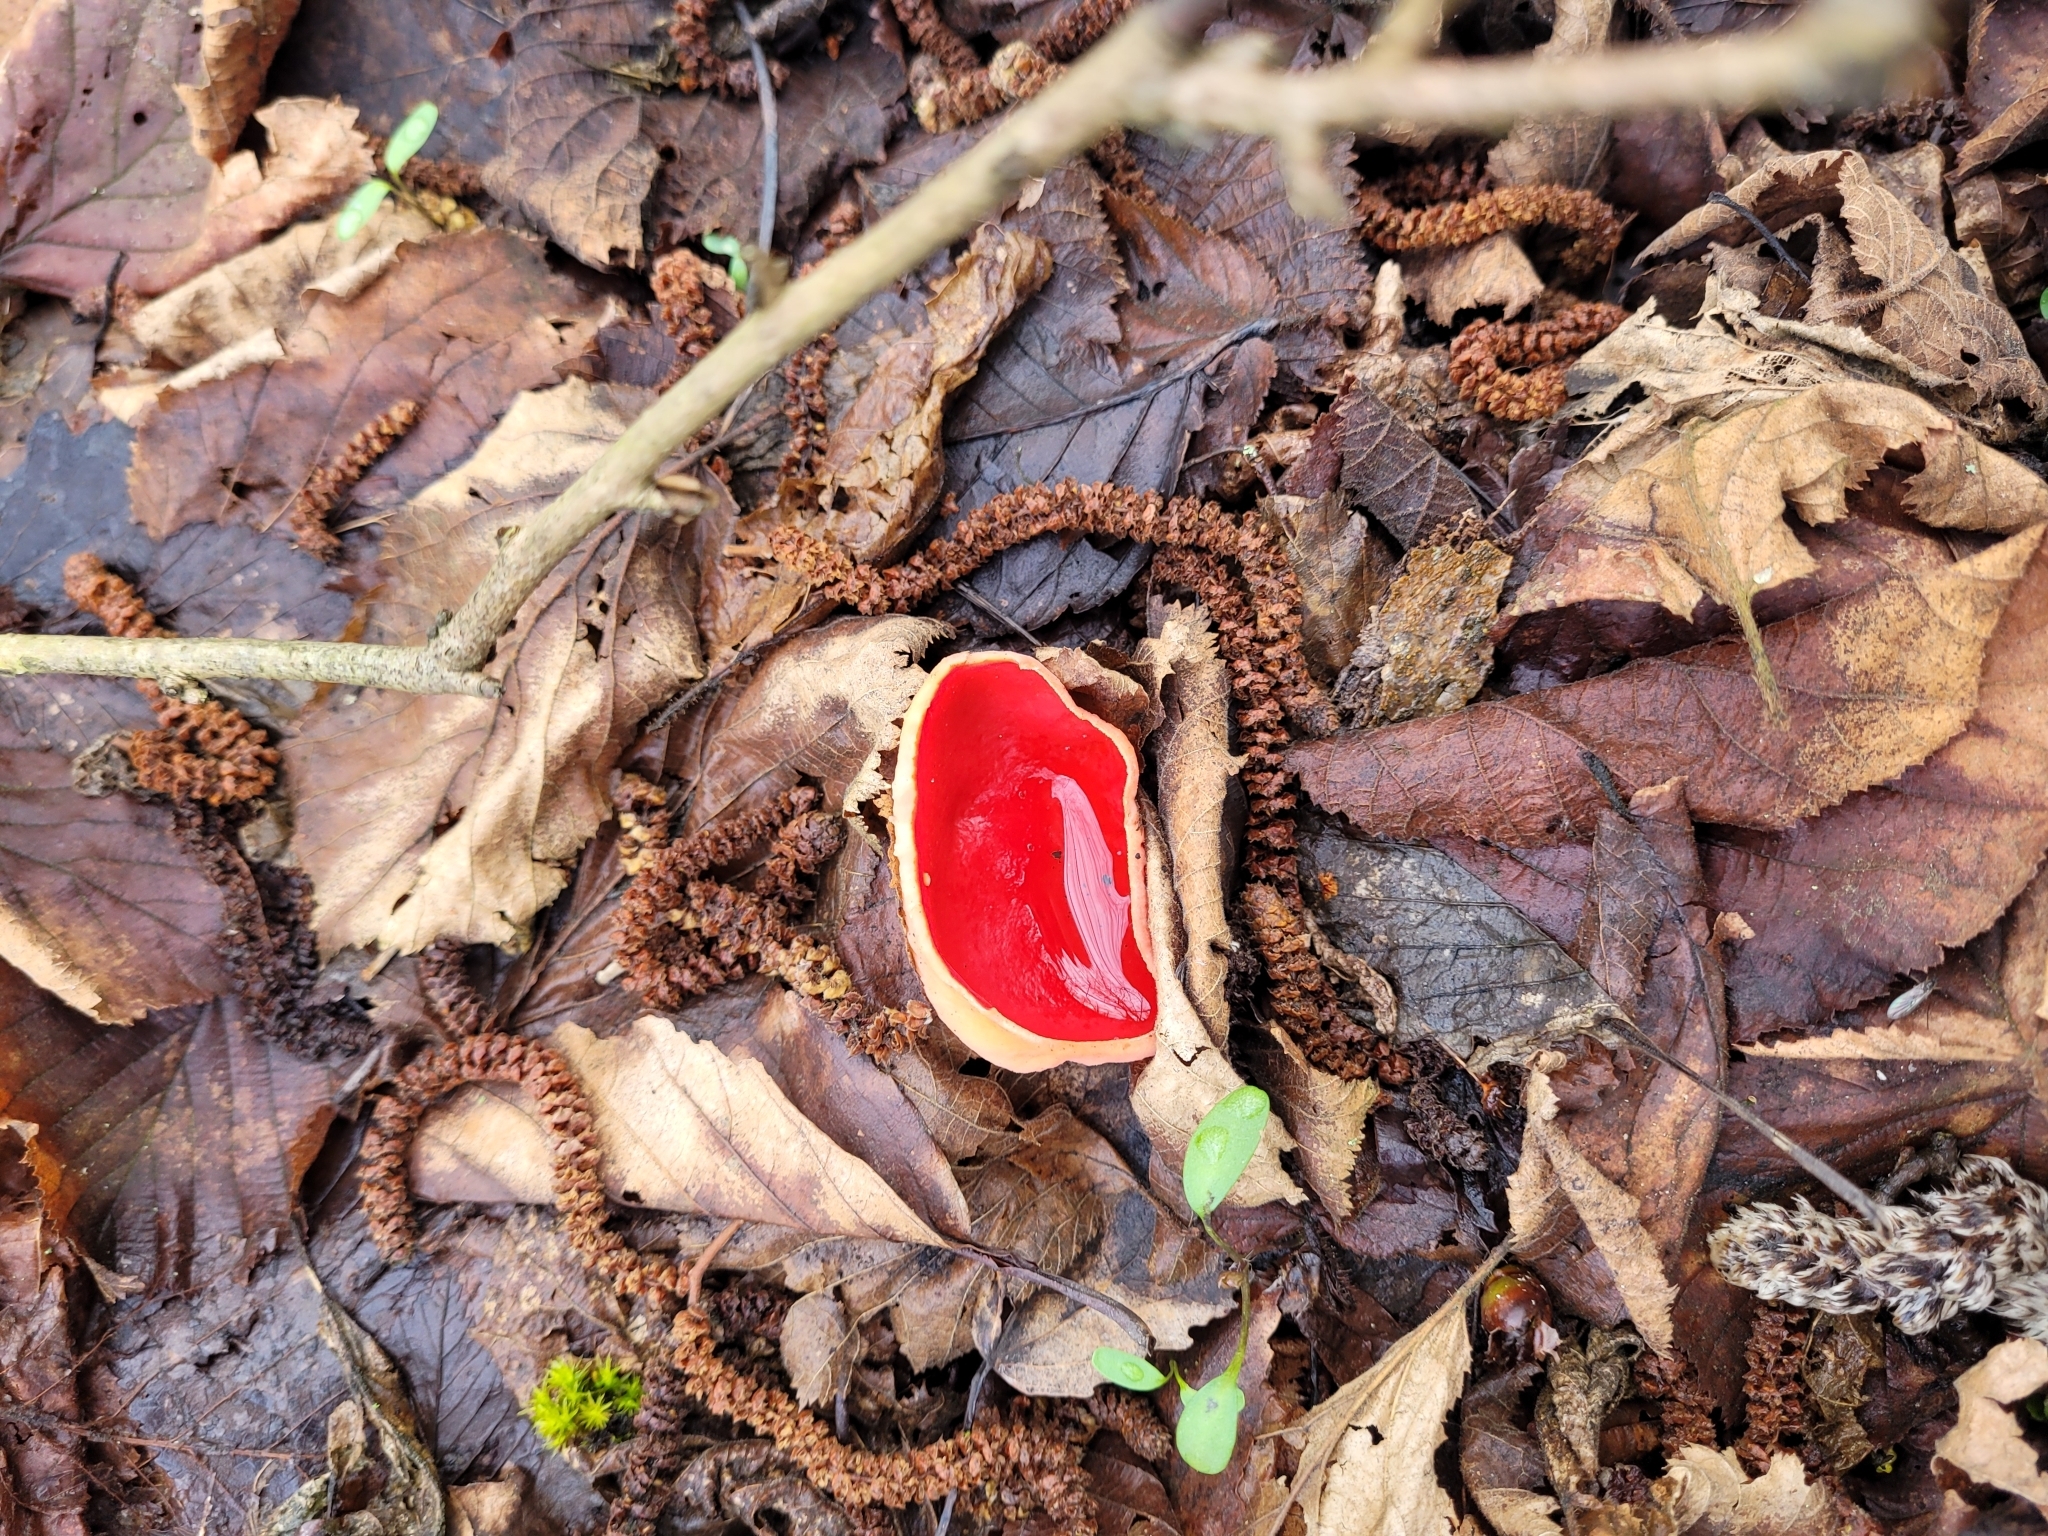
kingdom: Fungi
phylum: Ascomycota
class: Pezizomycetes
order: Pezizales
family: Sarcoscyphaceae
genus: Sarcoscypha
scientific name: Sarcoscypha
